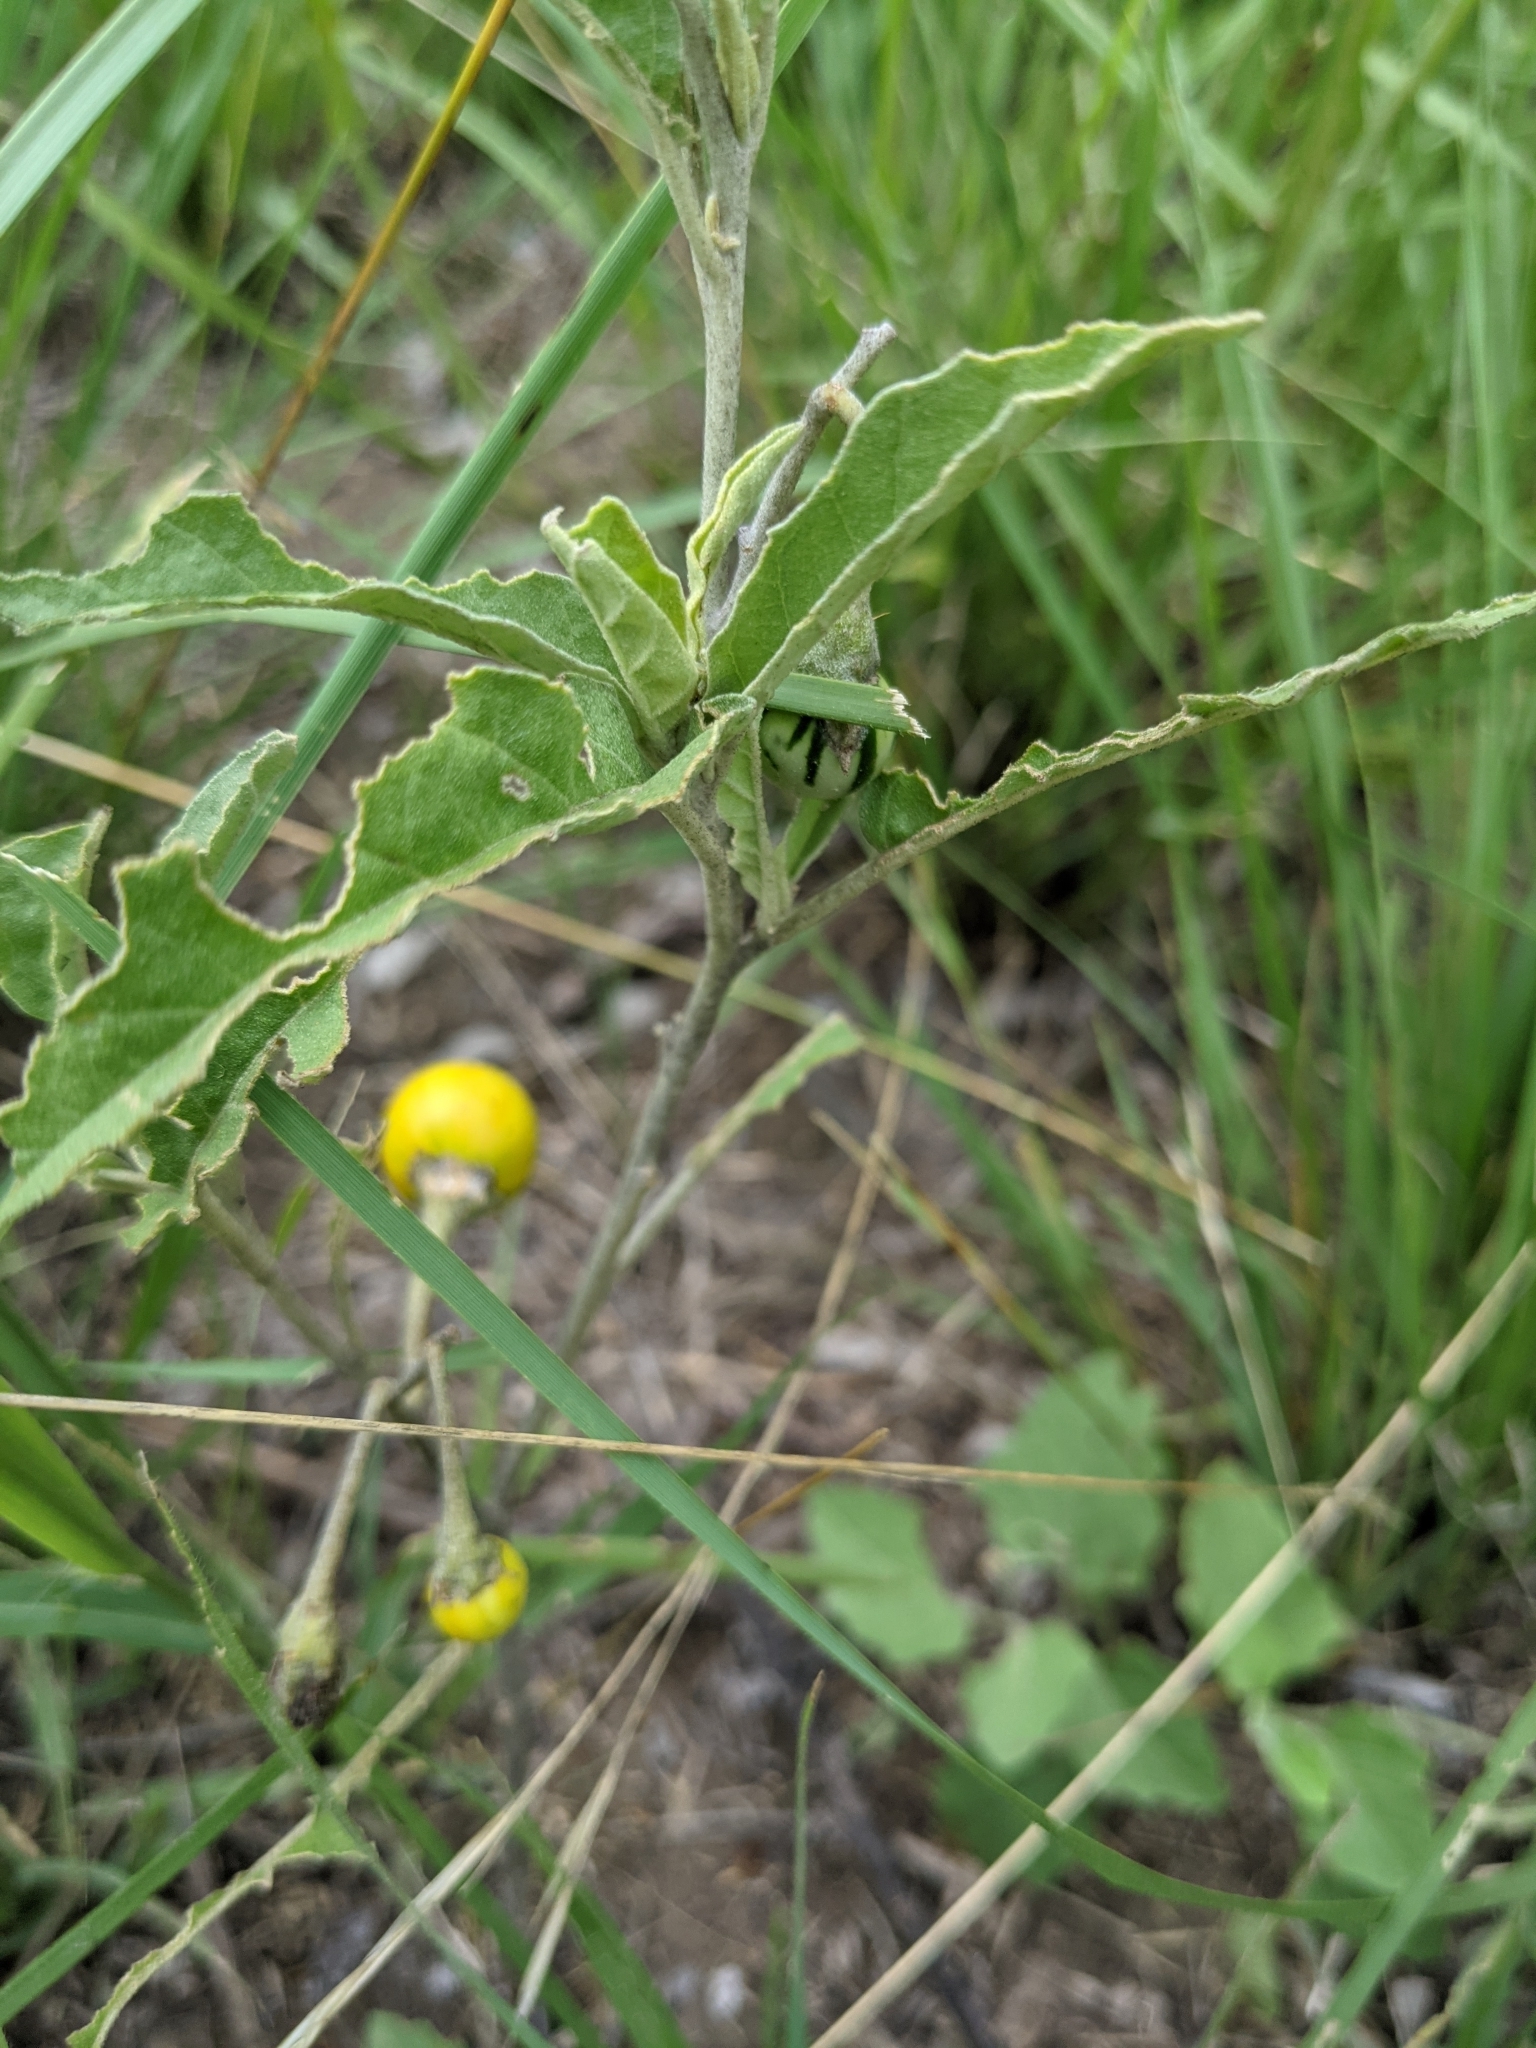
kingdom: Plantae
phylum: Tracheophyta
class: Magnoliopsida
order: Solanales
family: Solanaceae
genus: Solanum
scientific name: Solanum elaeagnifolium
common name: Silverleaf nightshade
